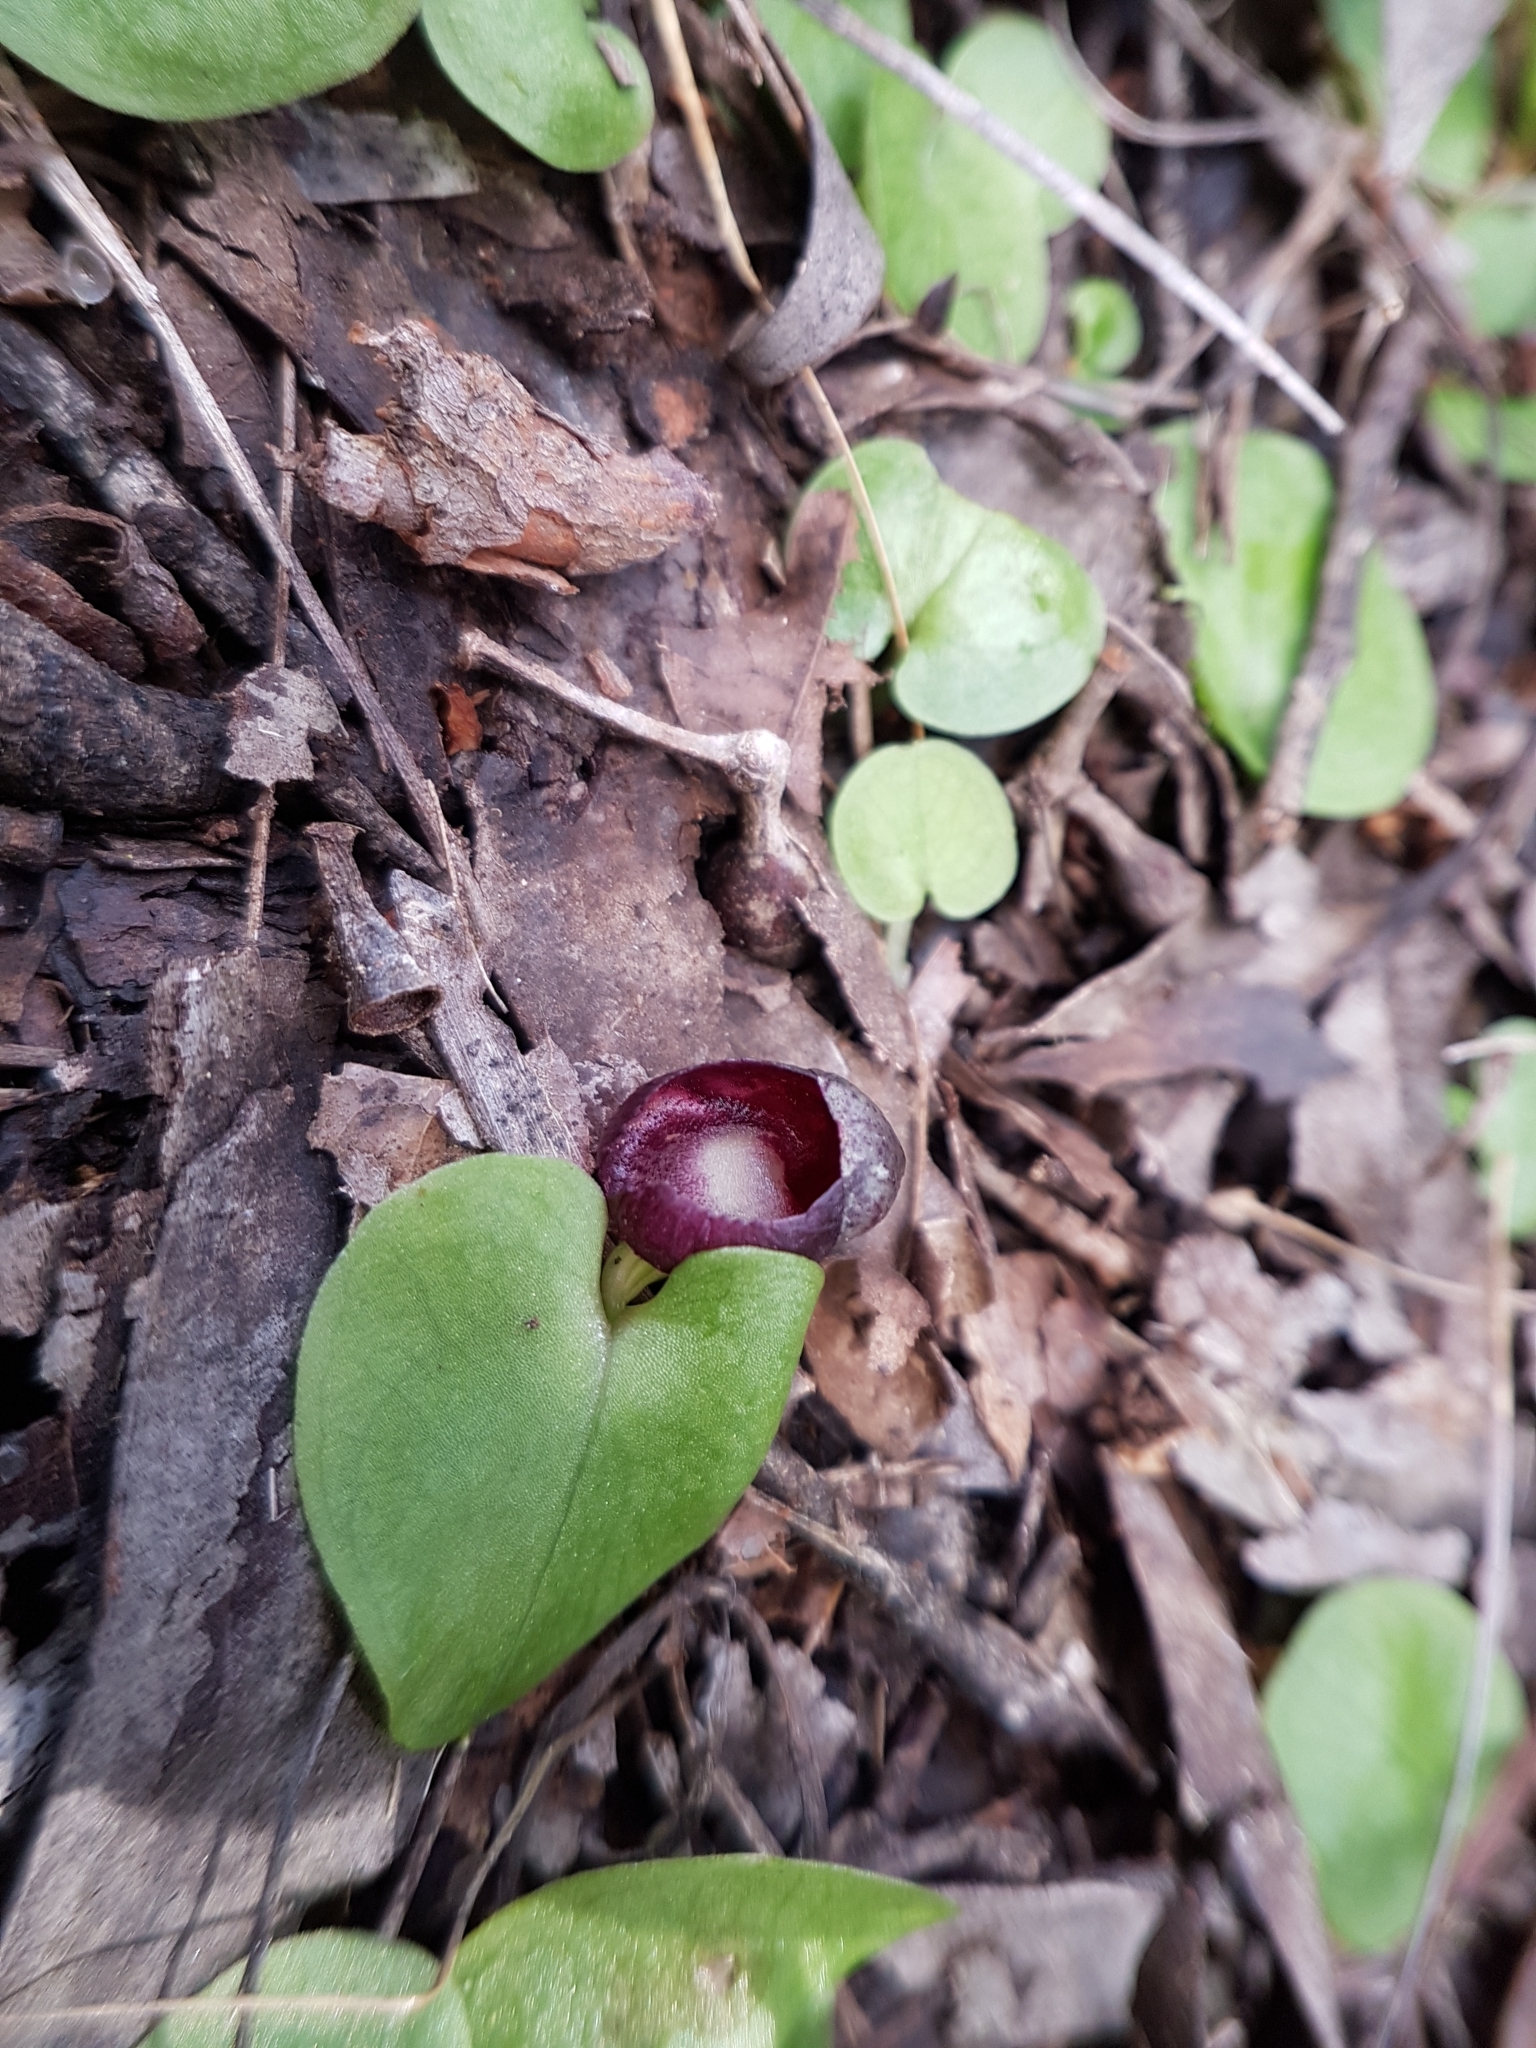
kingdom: Plantae
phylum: Tracheophyta
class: Liliopsida
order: Asparagales
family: Orchidaceae
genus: Corybas
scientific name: Corybas incurvus
